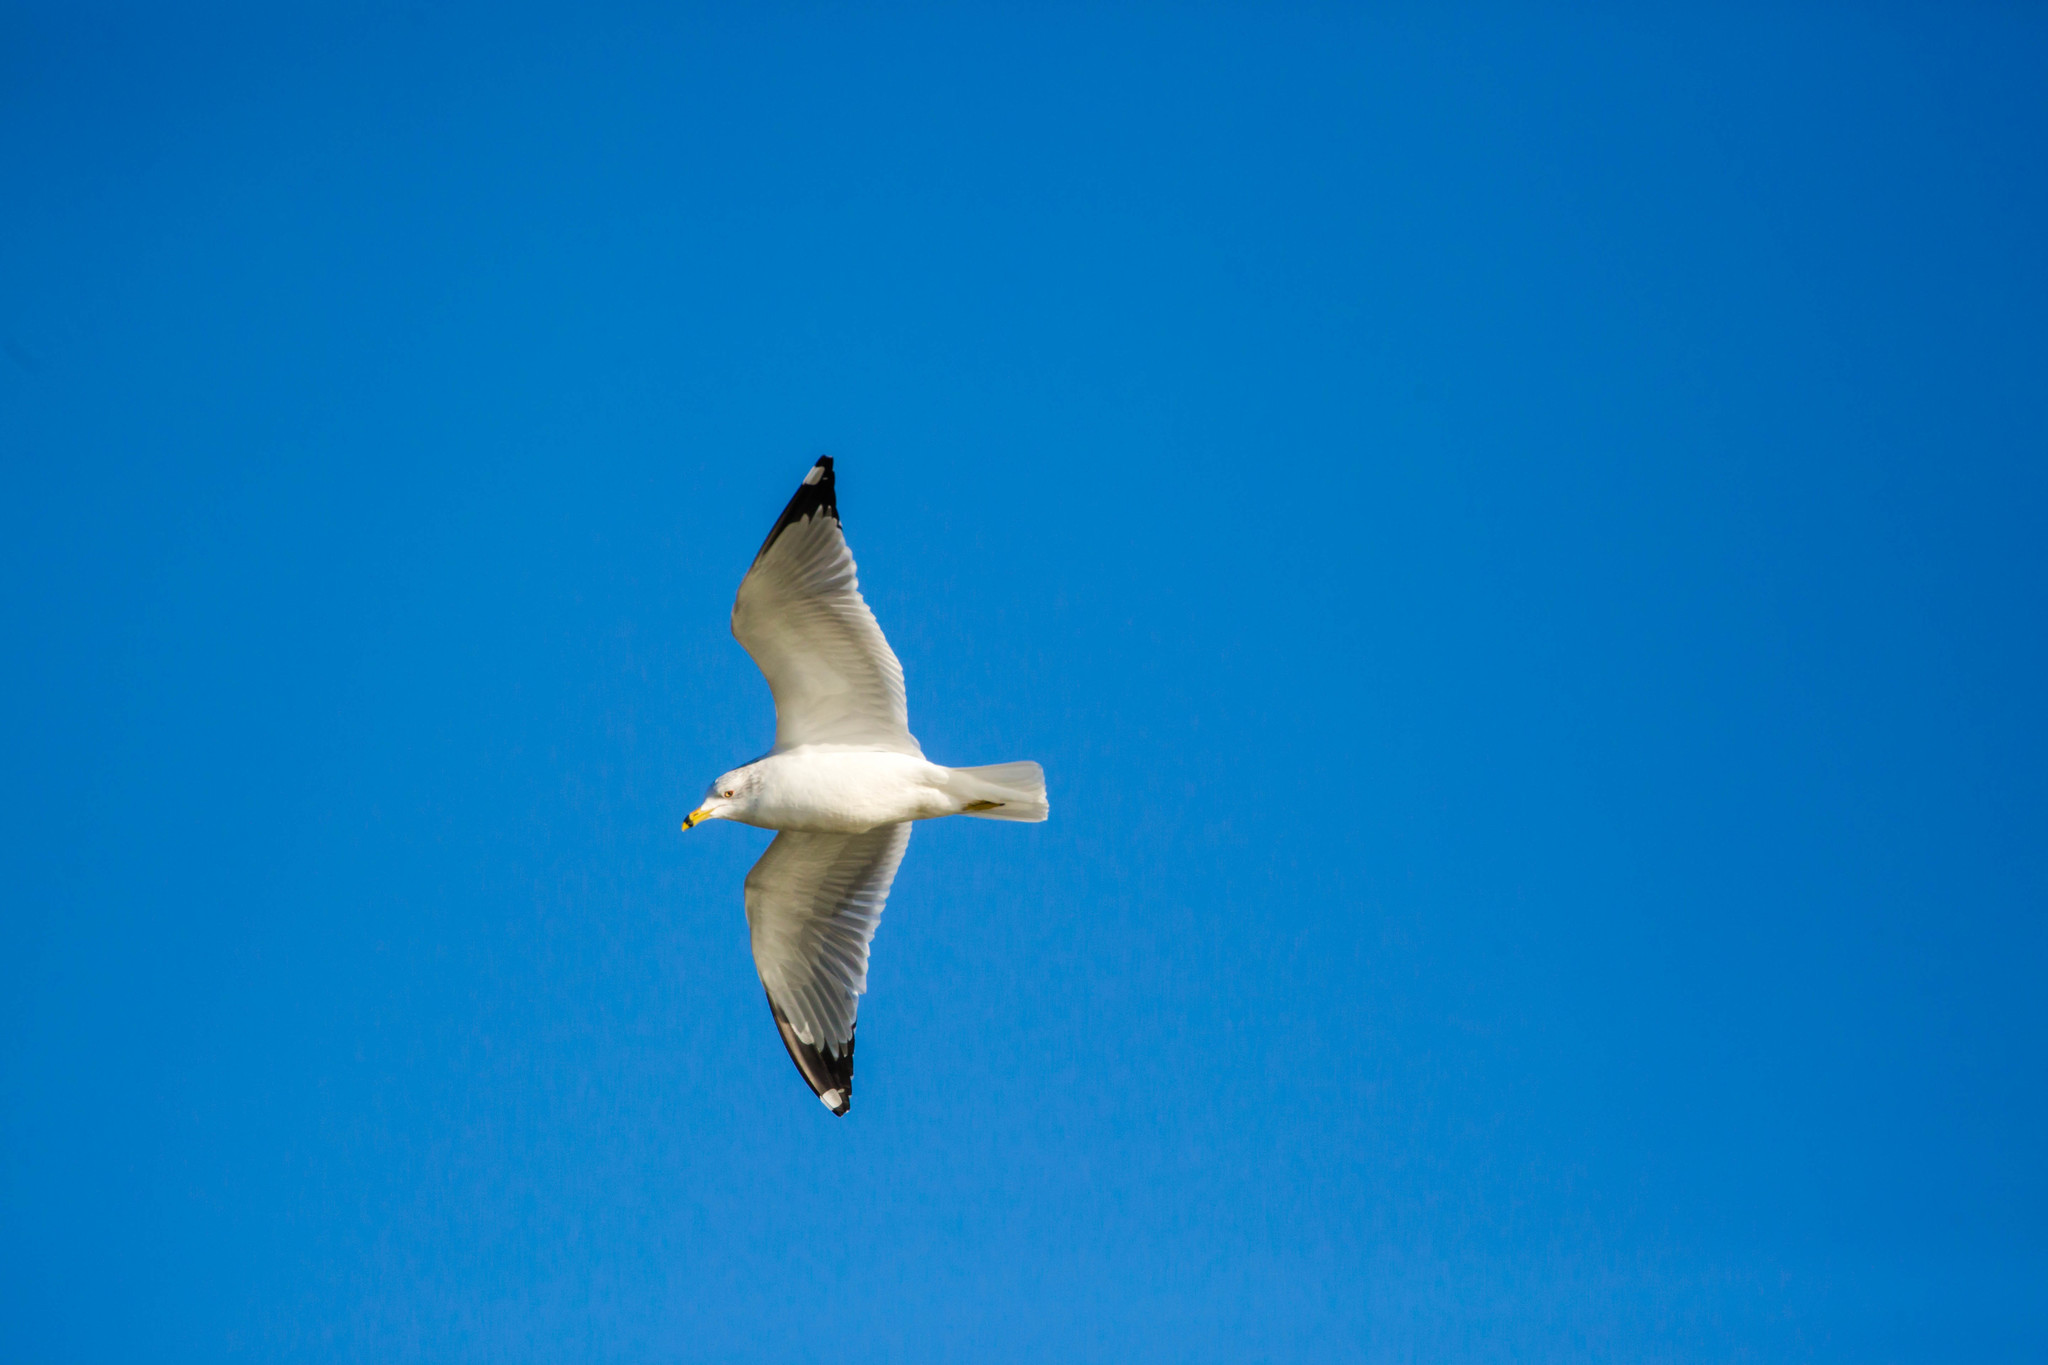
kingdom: Animalia
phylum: Chordata
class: Aves
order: Charadriiformes
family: Laridae
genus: Larus
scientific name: Larus delawarensis
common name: Ring-billed gull
